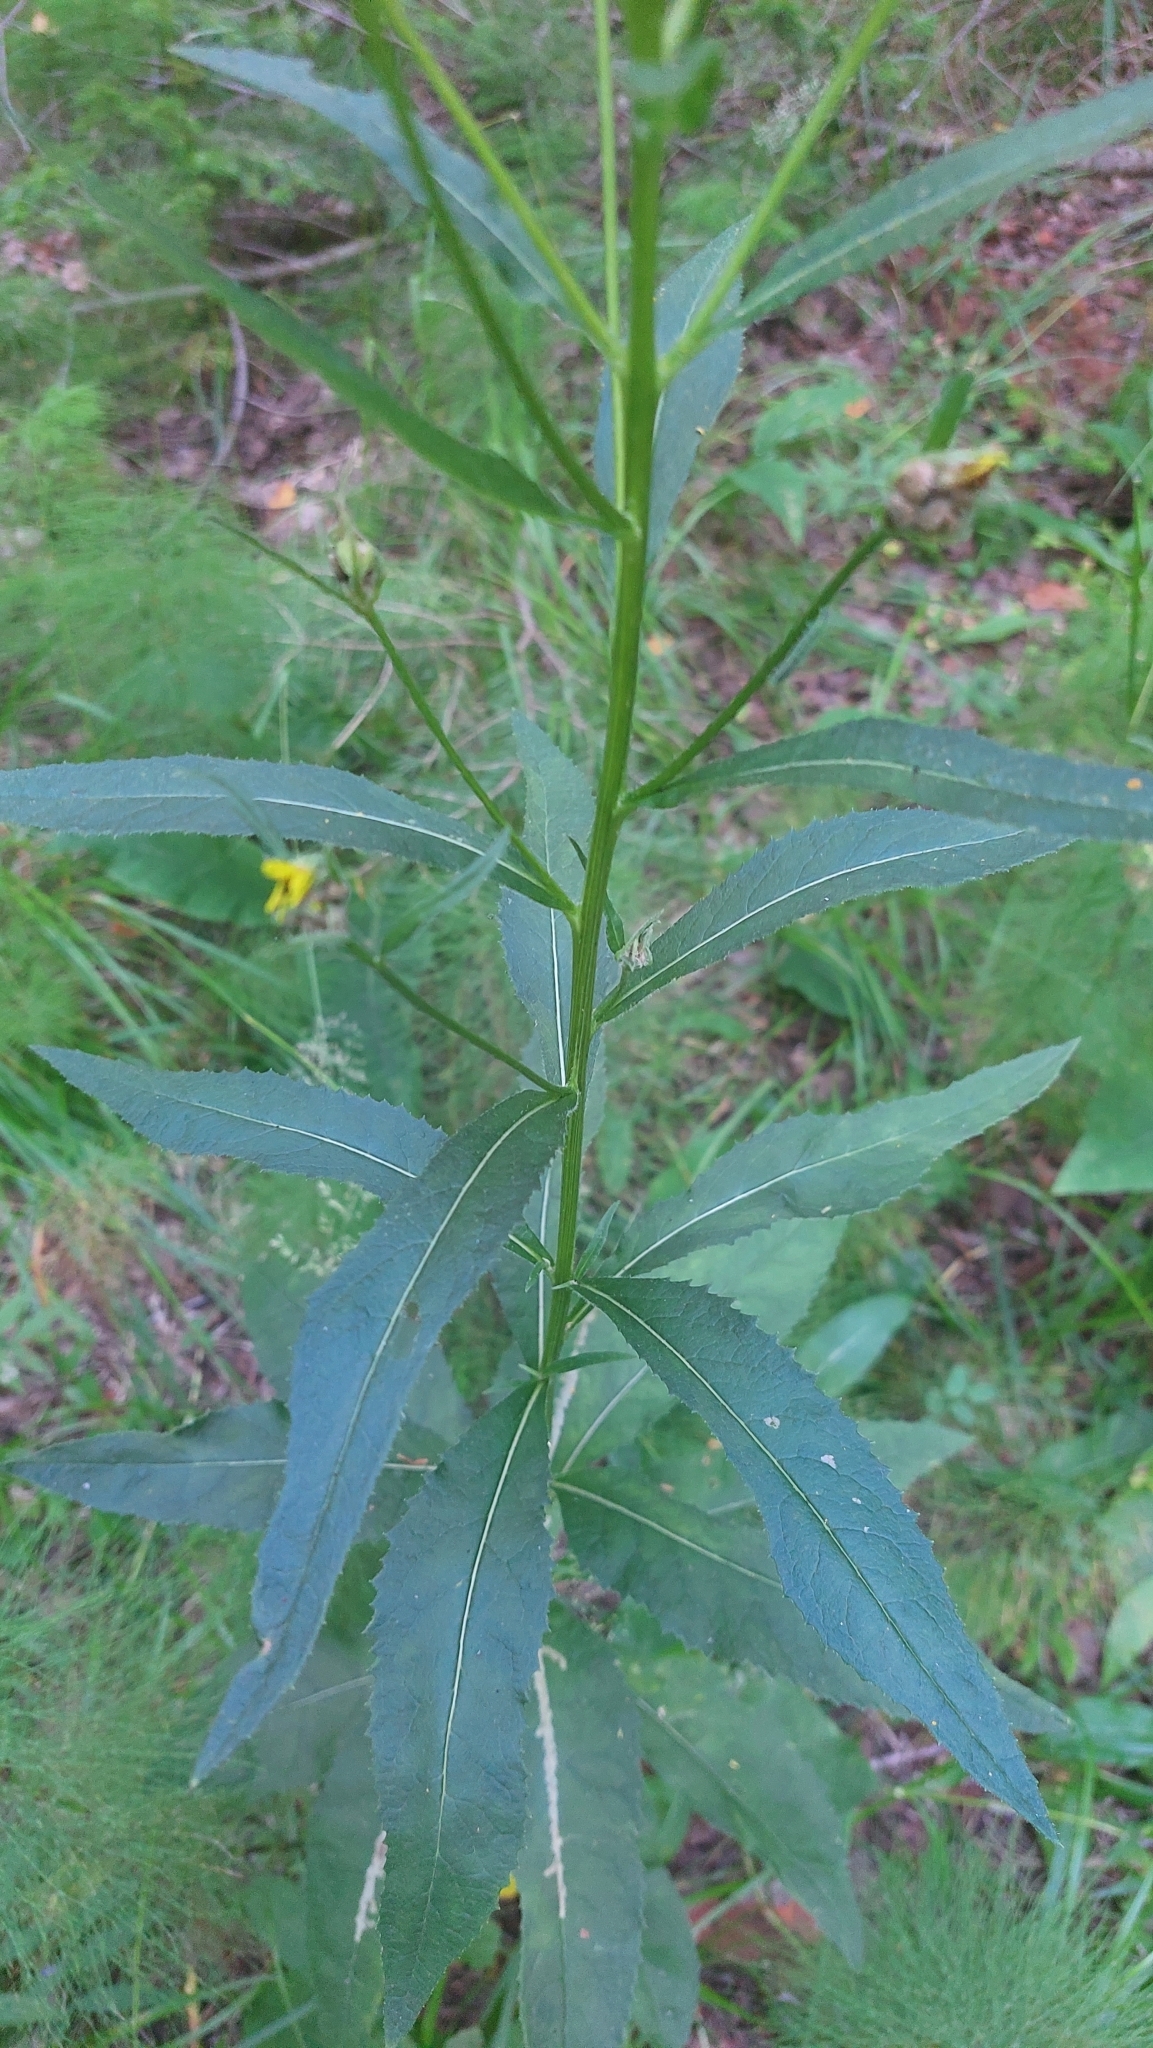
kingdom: Plantae
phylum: Tracheophyta
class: Magnoliopsida
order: Asterales
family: Asteraceae
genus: Senecio
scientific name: Senecio nemorensis
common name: Alpine ragwort
